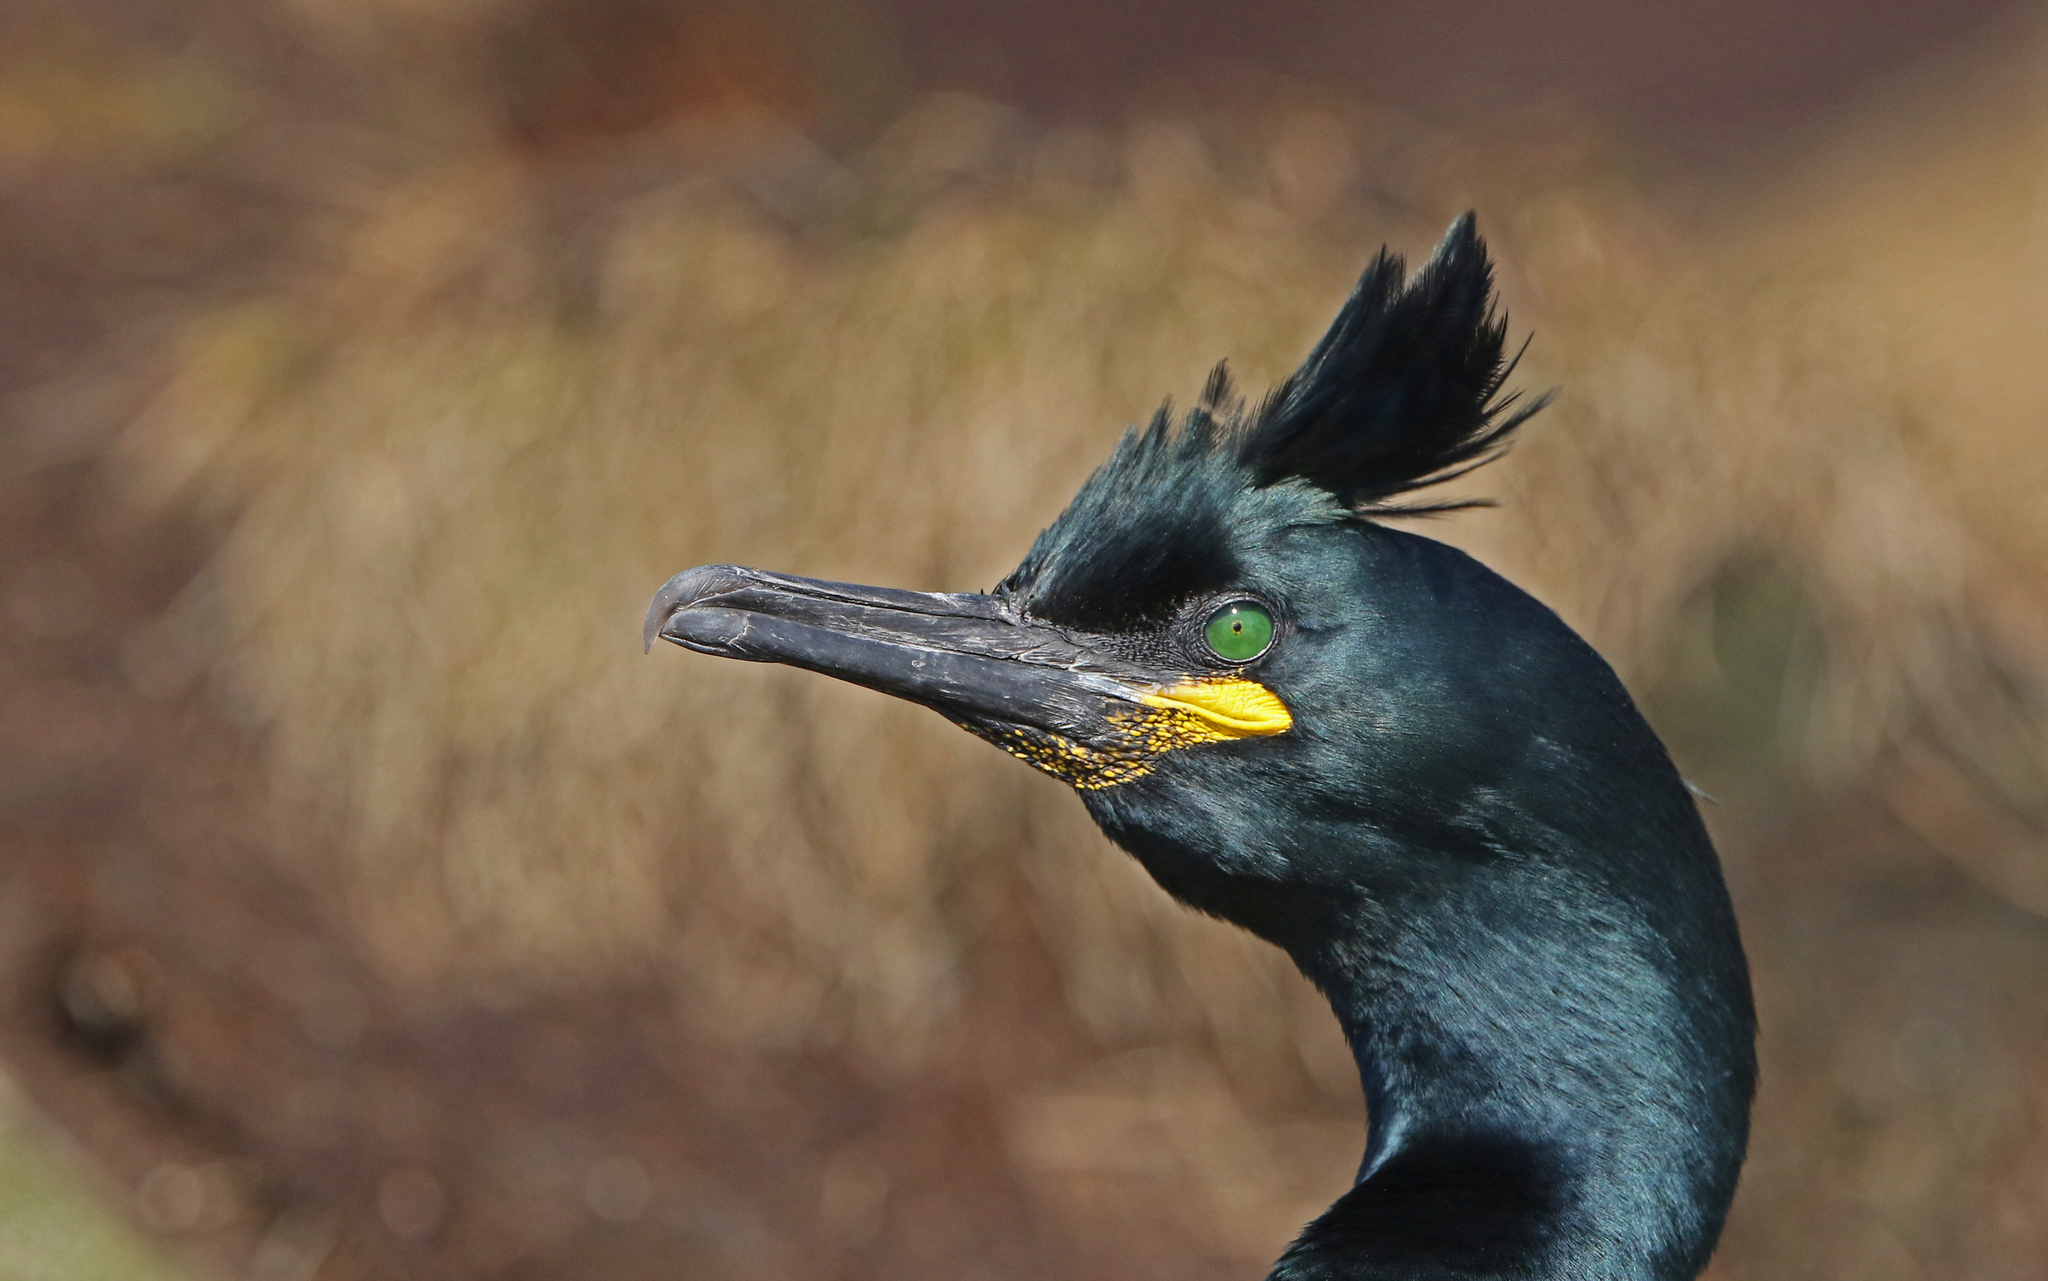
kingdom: Animalia
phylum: Chordata
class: Aves
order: Suliformes
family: Phalacrocoracidae
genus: Phalacrocorax
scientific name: Phalacrocorax aristotelis
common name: European shag
